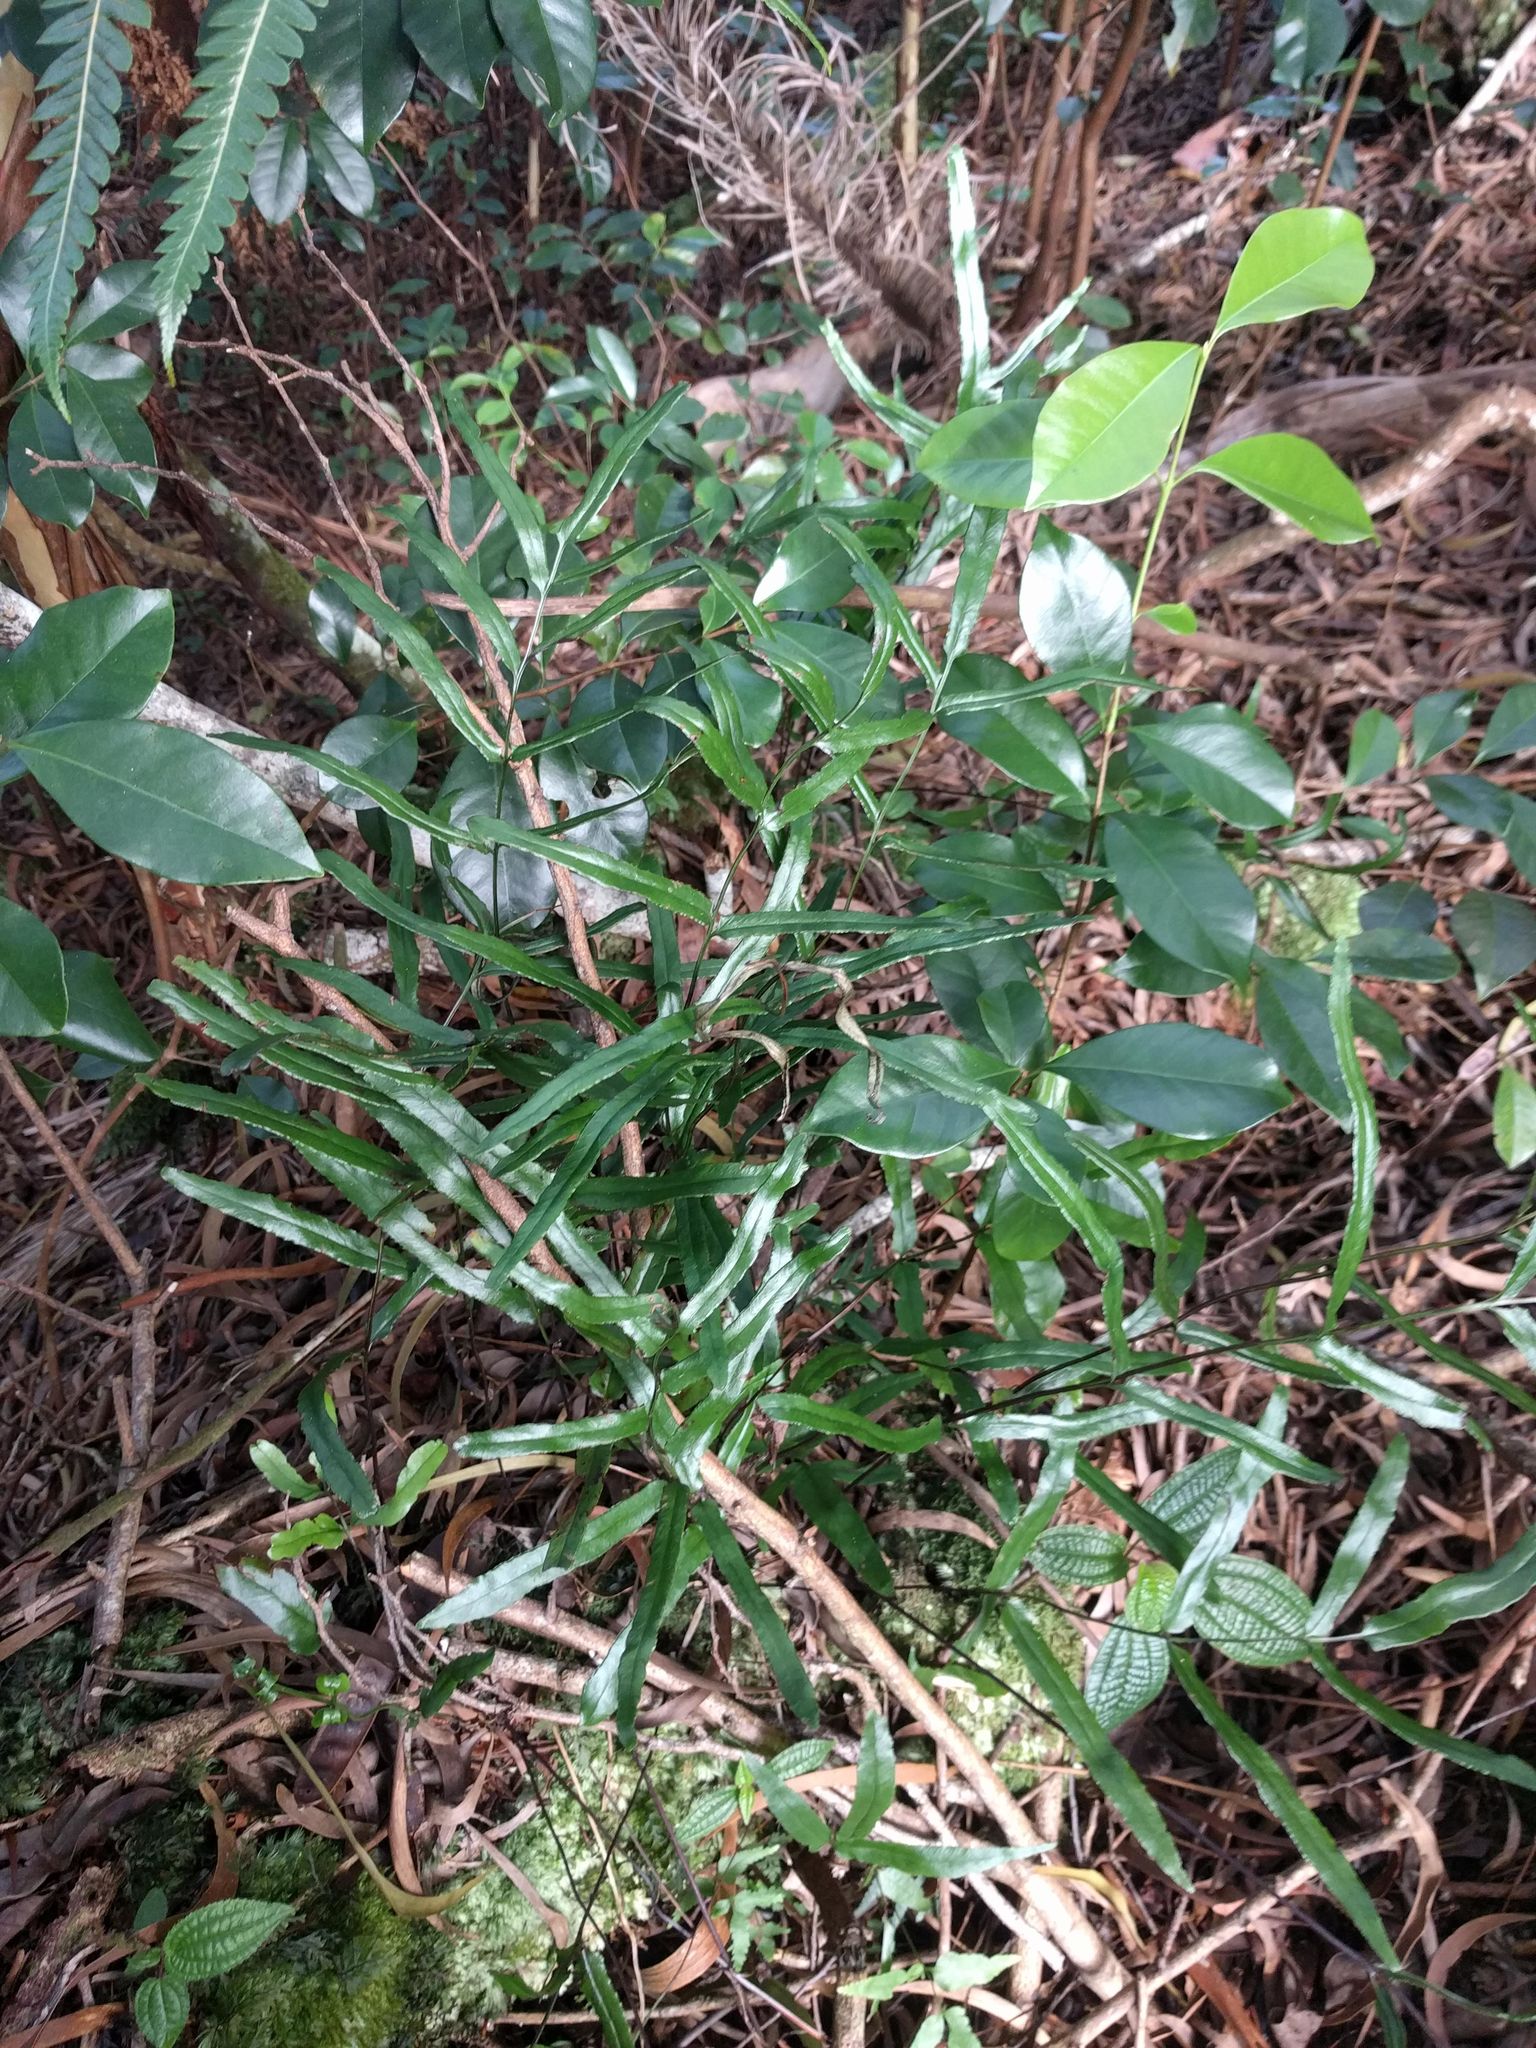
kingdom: Plantae
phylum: Tracheophyta
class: Polypodiopsida
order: Polypodiales
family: Lindsaeaceae
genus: Lindsaea
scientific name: Lindsaea ensifolia
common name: Graceful necklace fern
